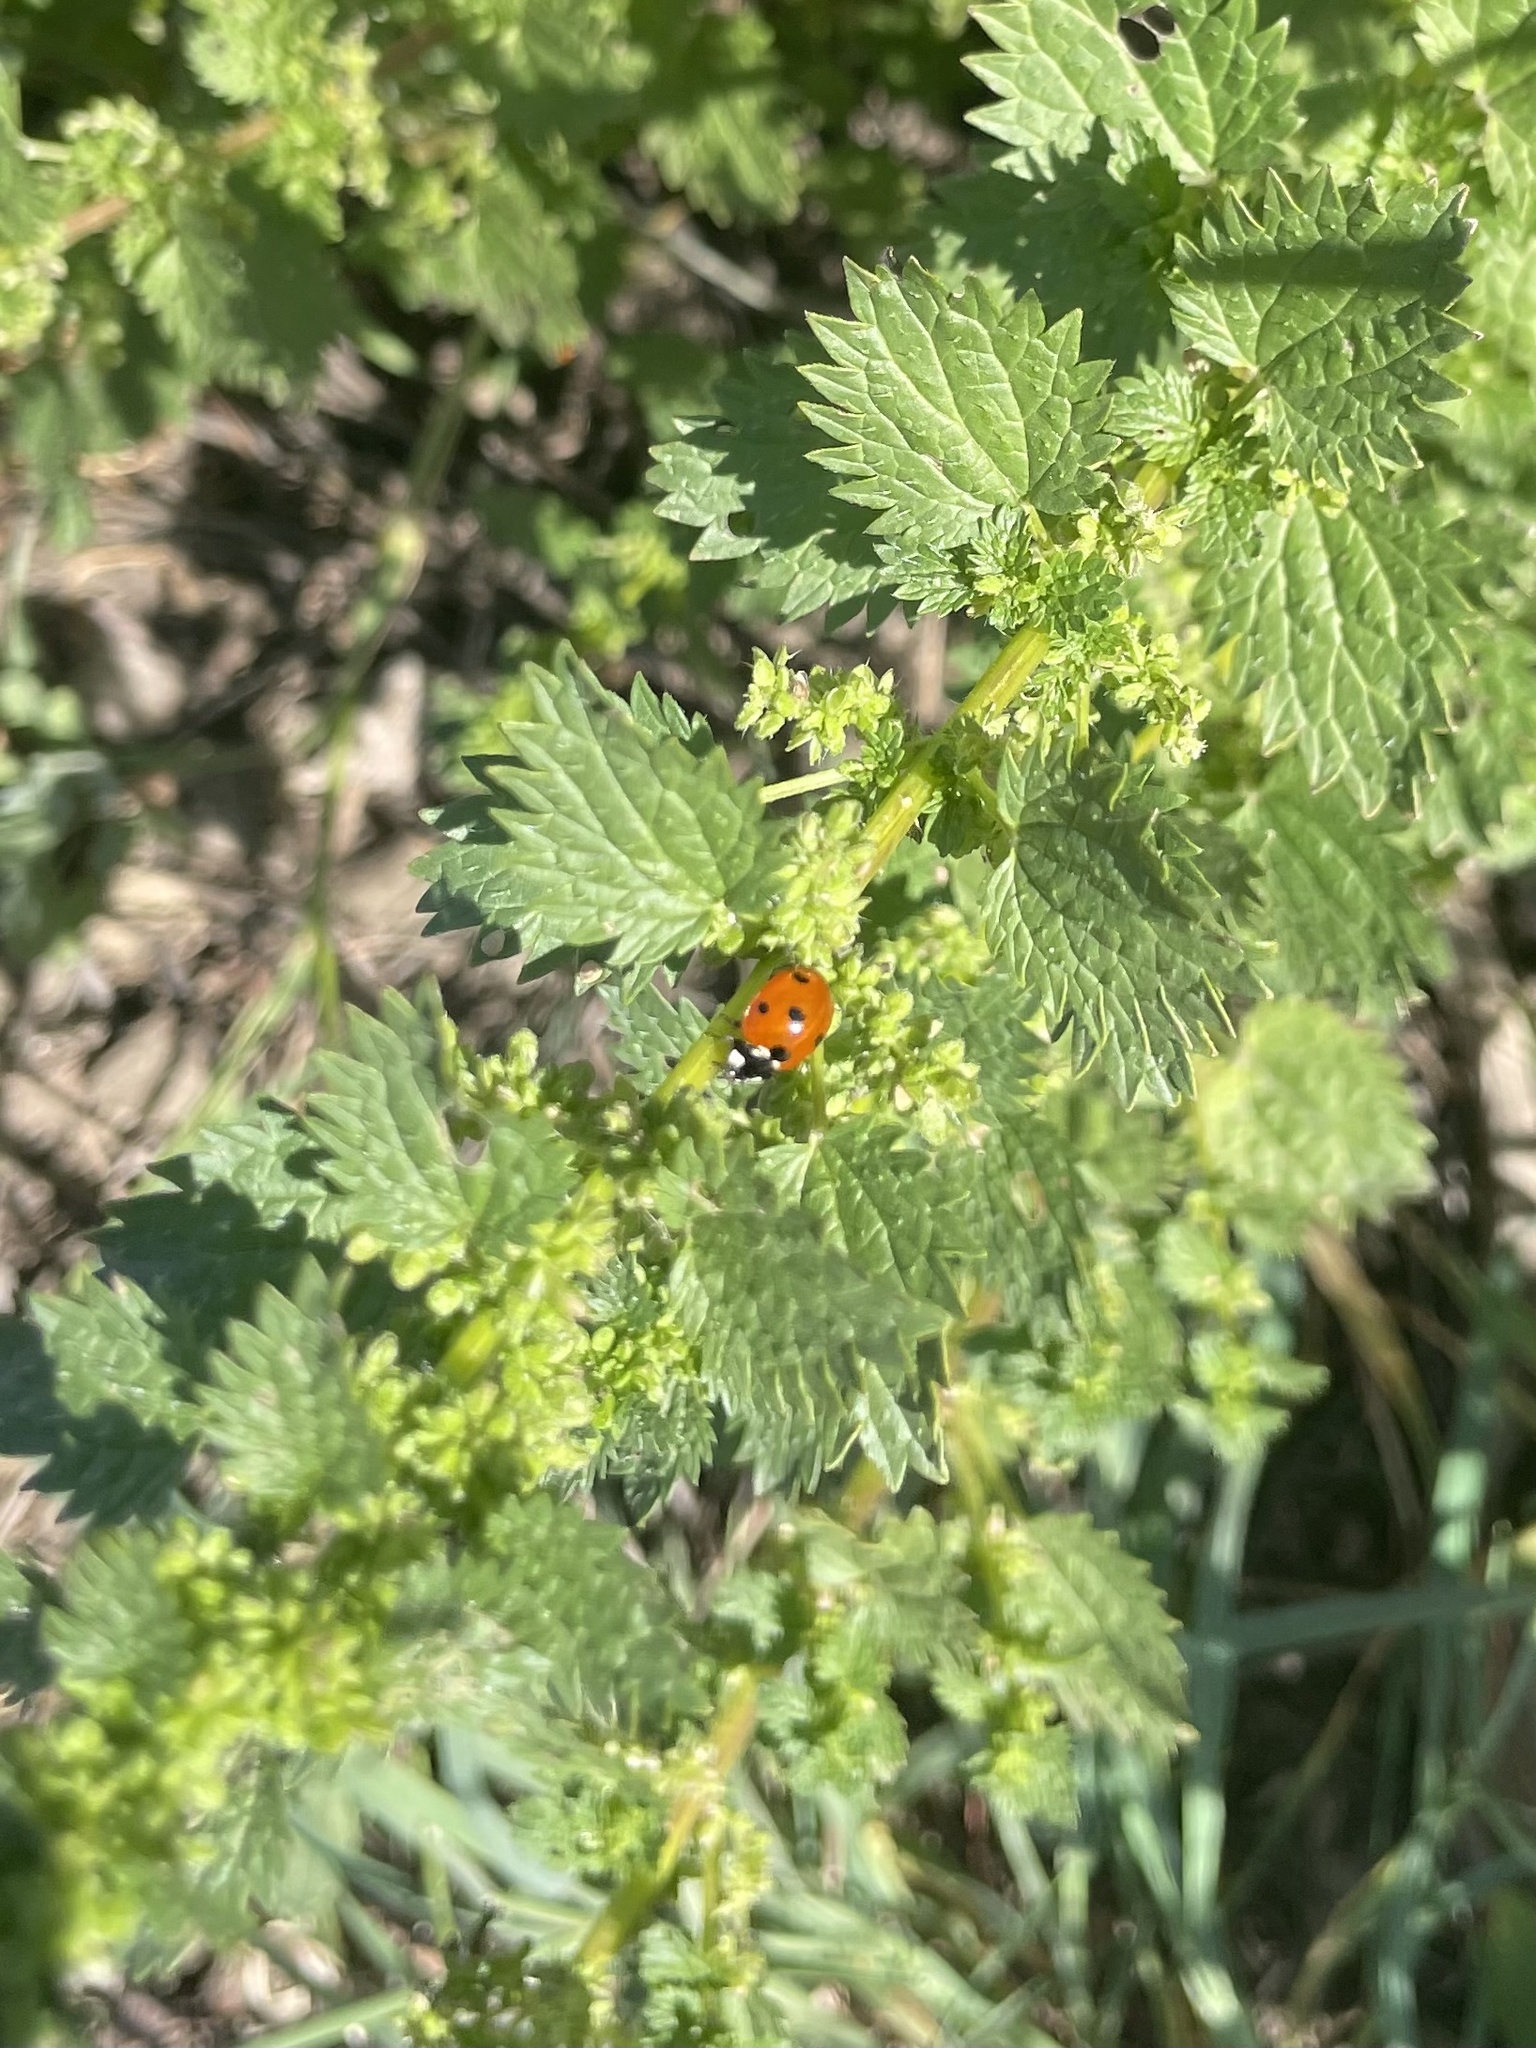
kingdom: Animalia
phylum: Arthropoda
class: Insecta
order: Coleoptera
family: Coccinellidae
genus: Coccinella
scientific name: Coccinella septempunctata
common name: Sevenspotted lady beetle
